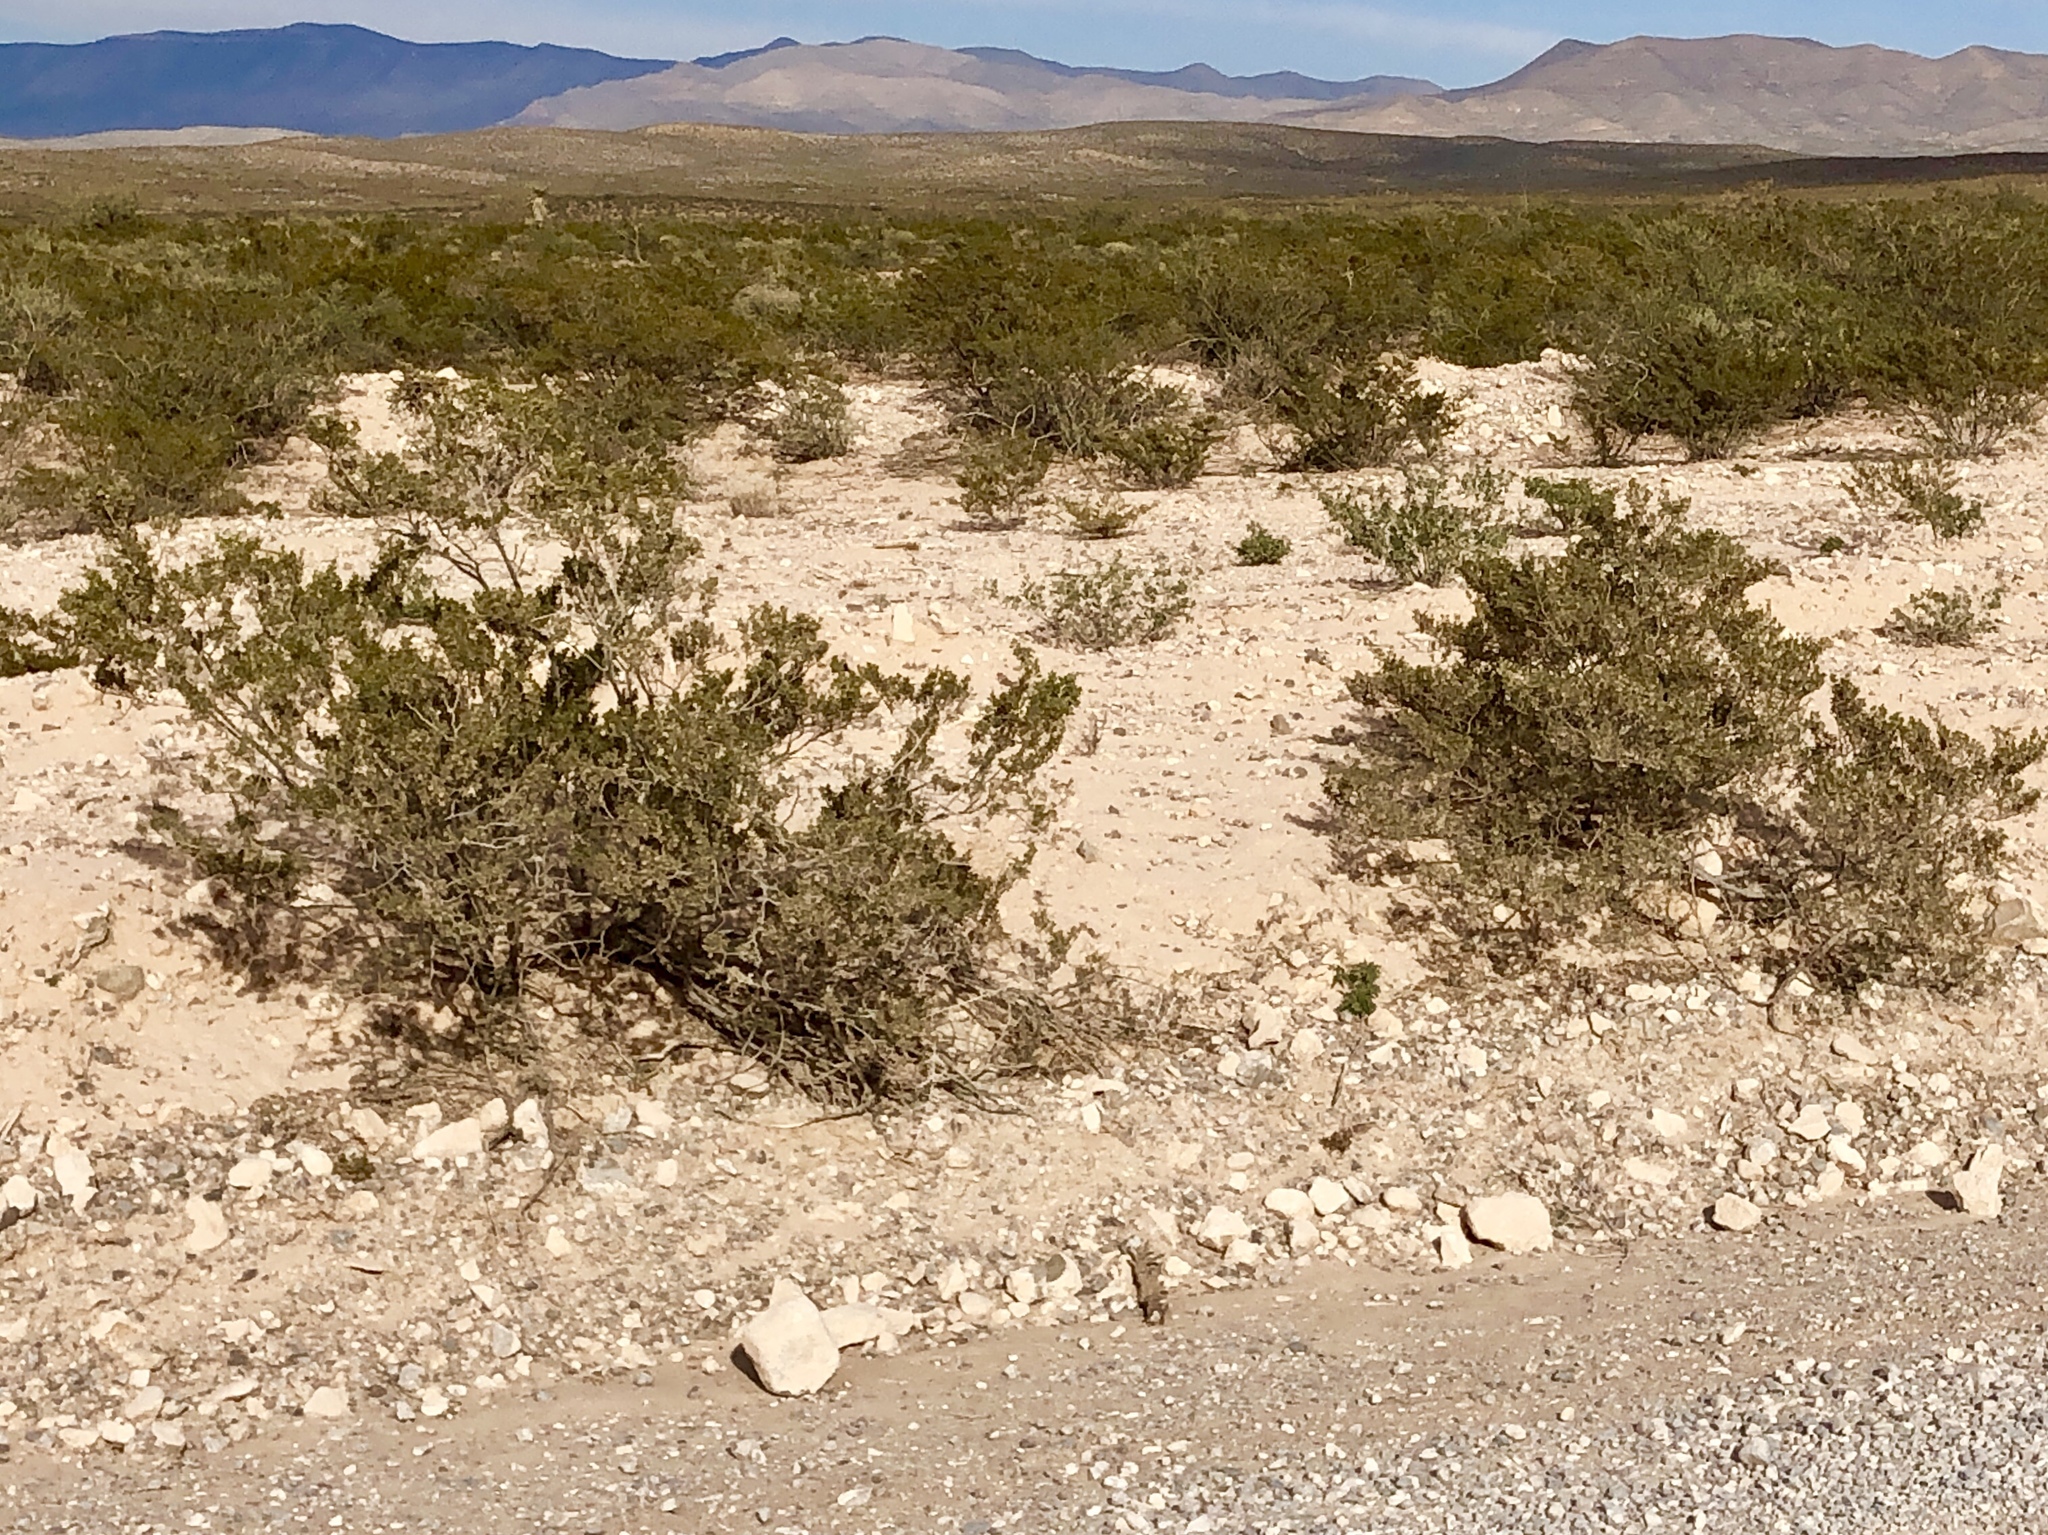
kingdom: Plantae
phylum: Tracheophyta
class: Magnoliopsida
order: Zygophyllales
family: Zygophyllaceae
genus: Larrea
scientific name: Larrea tridentata
